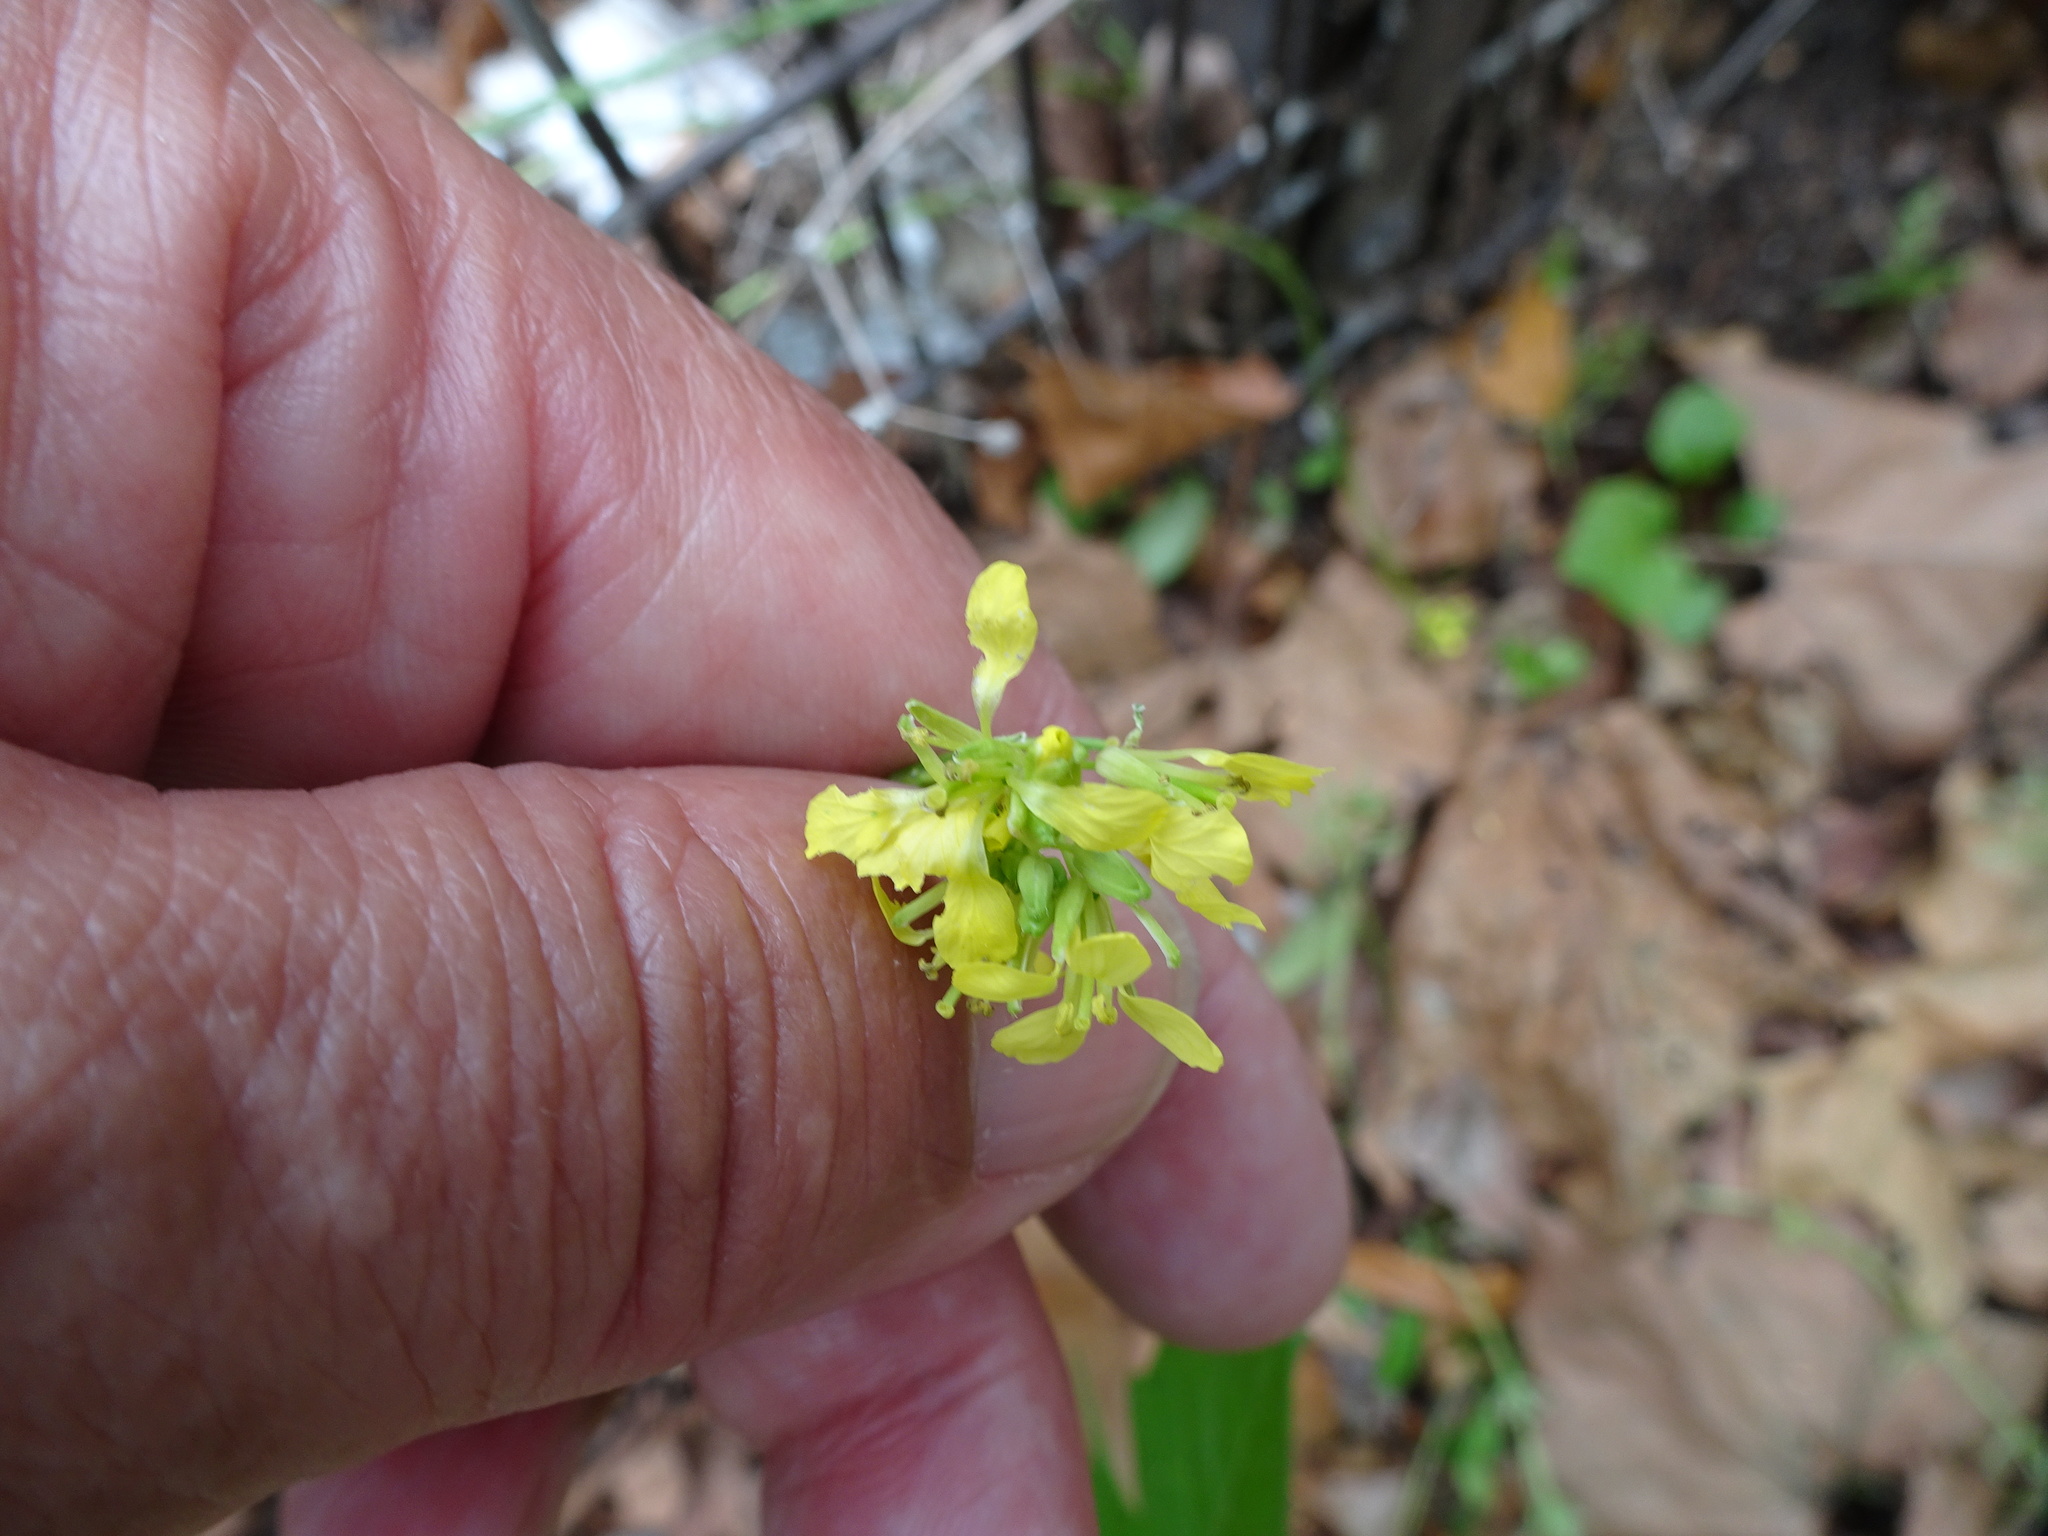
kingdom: Plantae
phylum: Tracheophyta
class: Magnoliopsida
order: Brassicales
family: Brassicaceae
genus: Hirschfeldia
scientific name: Hirschfeldia incana
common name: Hoary mustard
